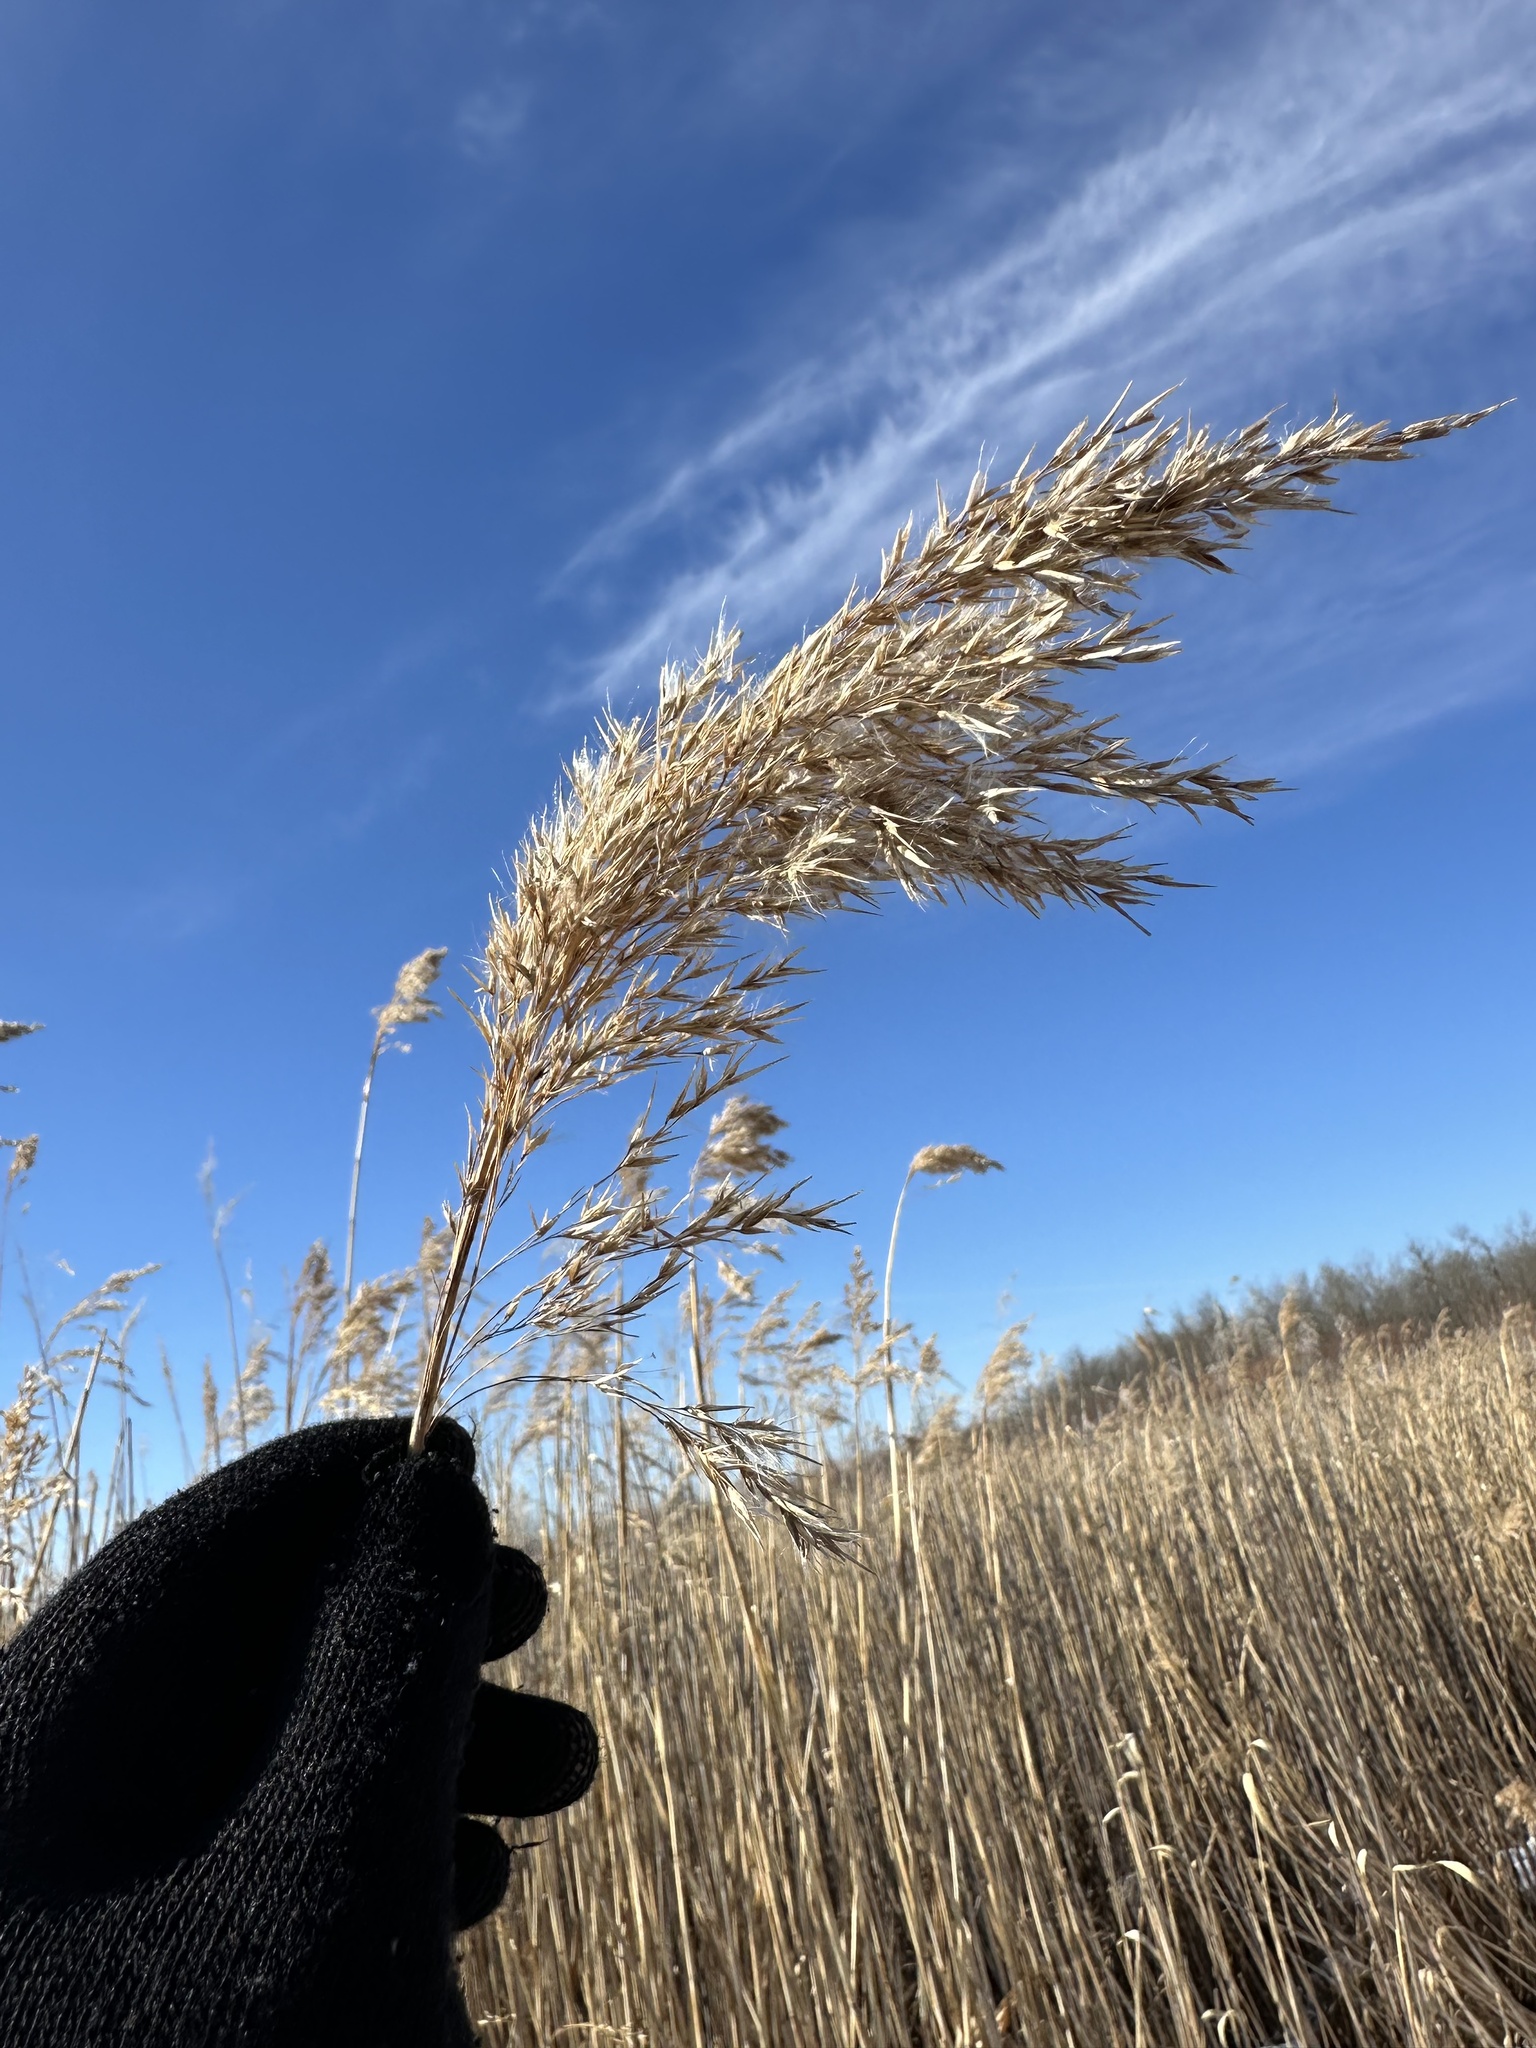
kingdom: Plantae
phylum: Tracheophyta
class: Liliopsida
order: Poales
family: Poaceae
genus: Phragmites
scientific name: Phragmites australis
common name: Common reed
